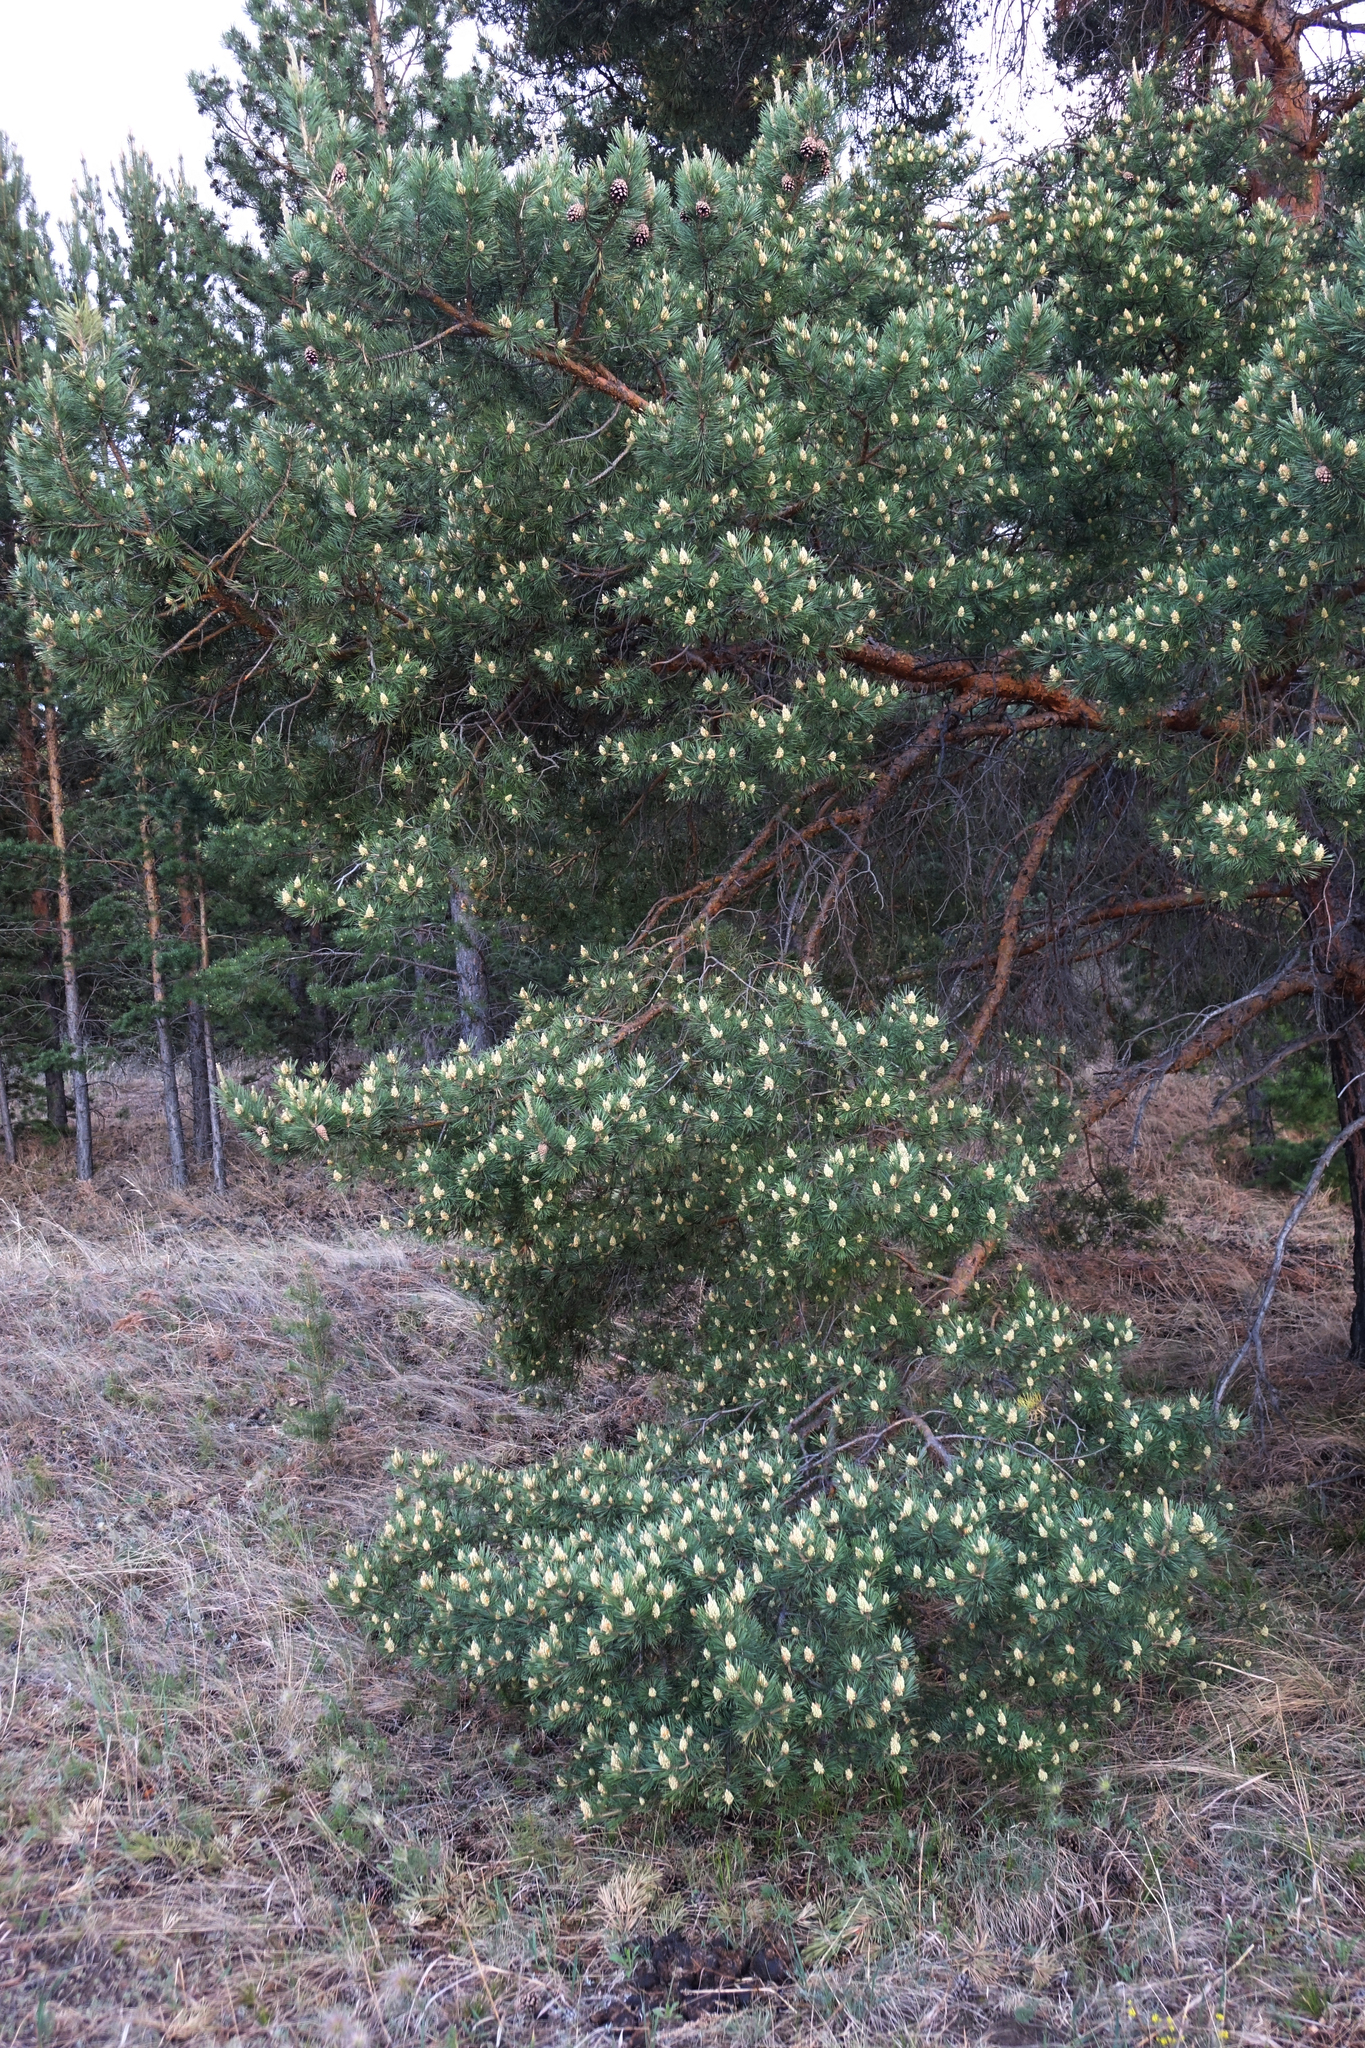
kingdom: Plantae
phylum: Tracheophyta
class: Pinopsida
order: Pinales
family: Pinaceae
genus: Pinus
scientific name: Pinus sylvestris
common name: Scots pine
